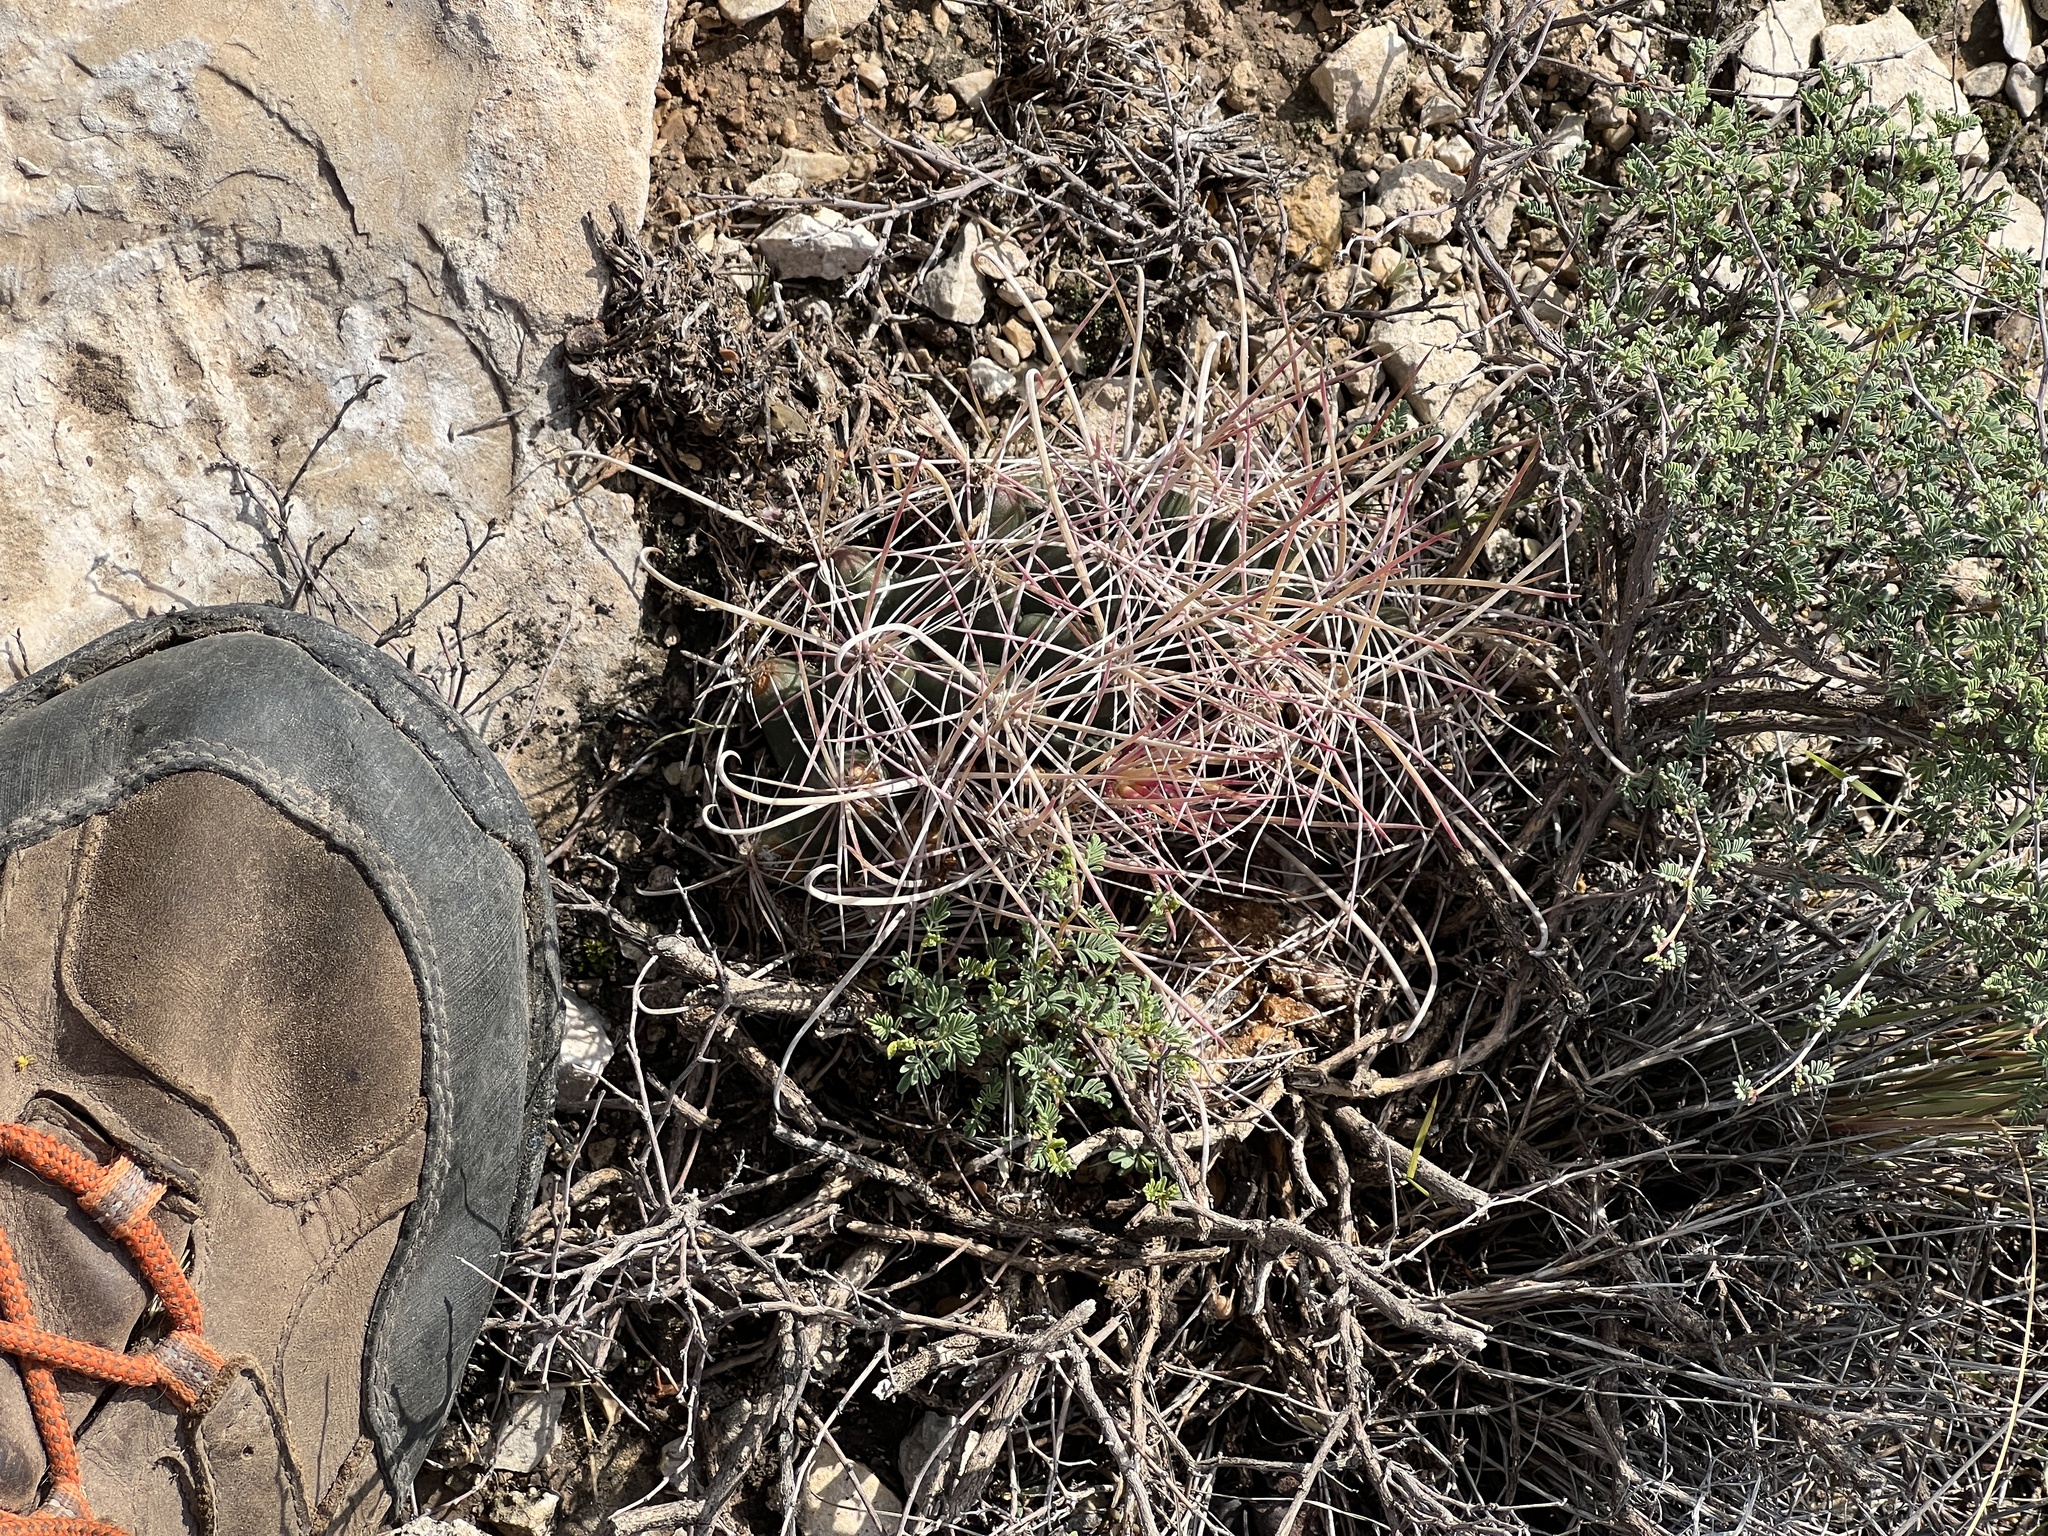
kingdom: Plantae
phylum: Tracheophyta
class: Magnoliopsida
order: Caryophyllales
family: Cactaceae
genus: Bisnaga
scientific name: Bisnaga hamatacantha
